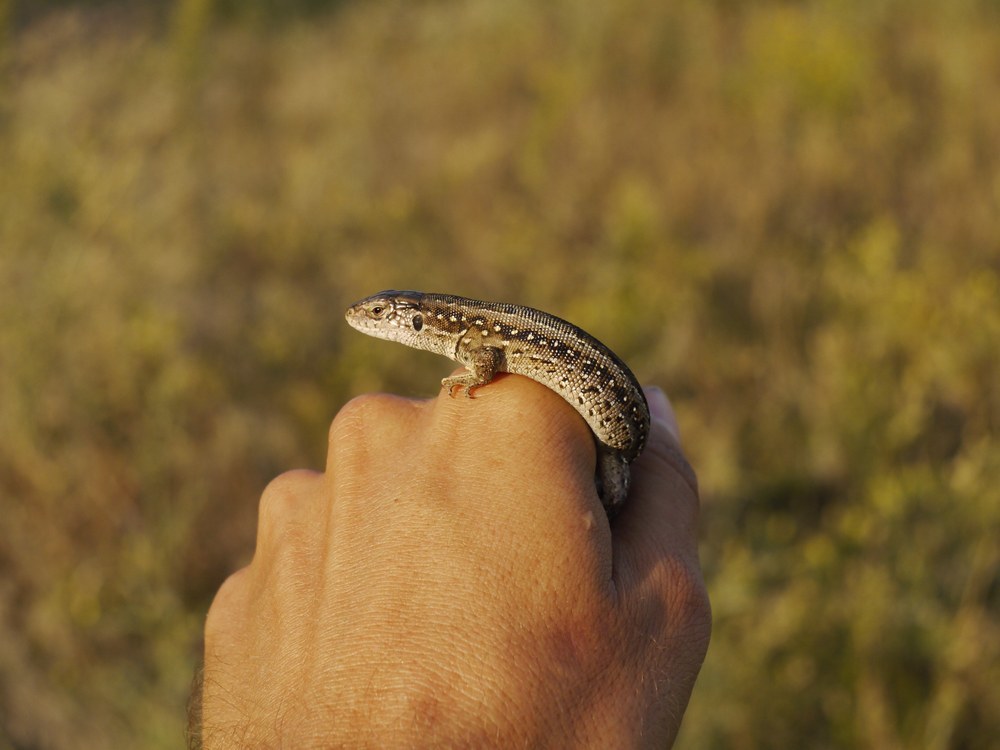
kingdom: Animalia
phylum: Chordata
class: Squamata
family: Lacertidae
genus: Lacerta
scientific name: Lacerta agilis
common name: Sand lizard
